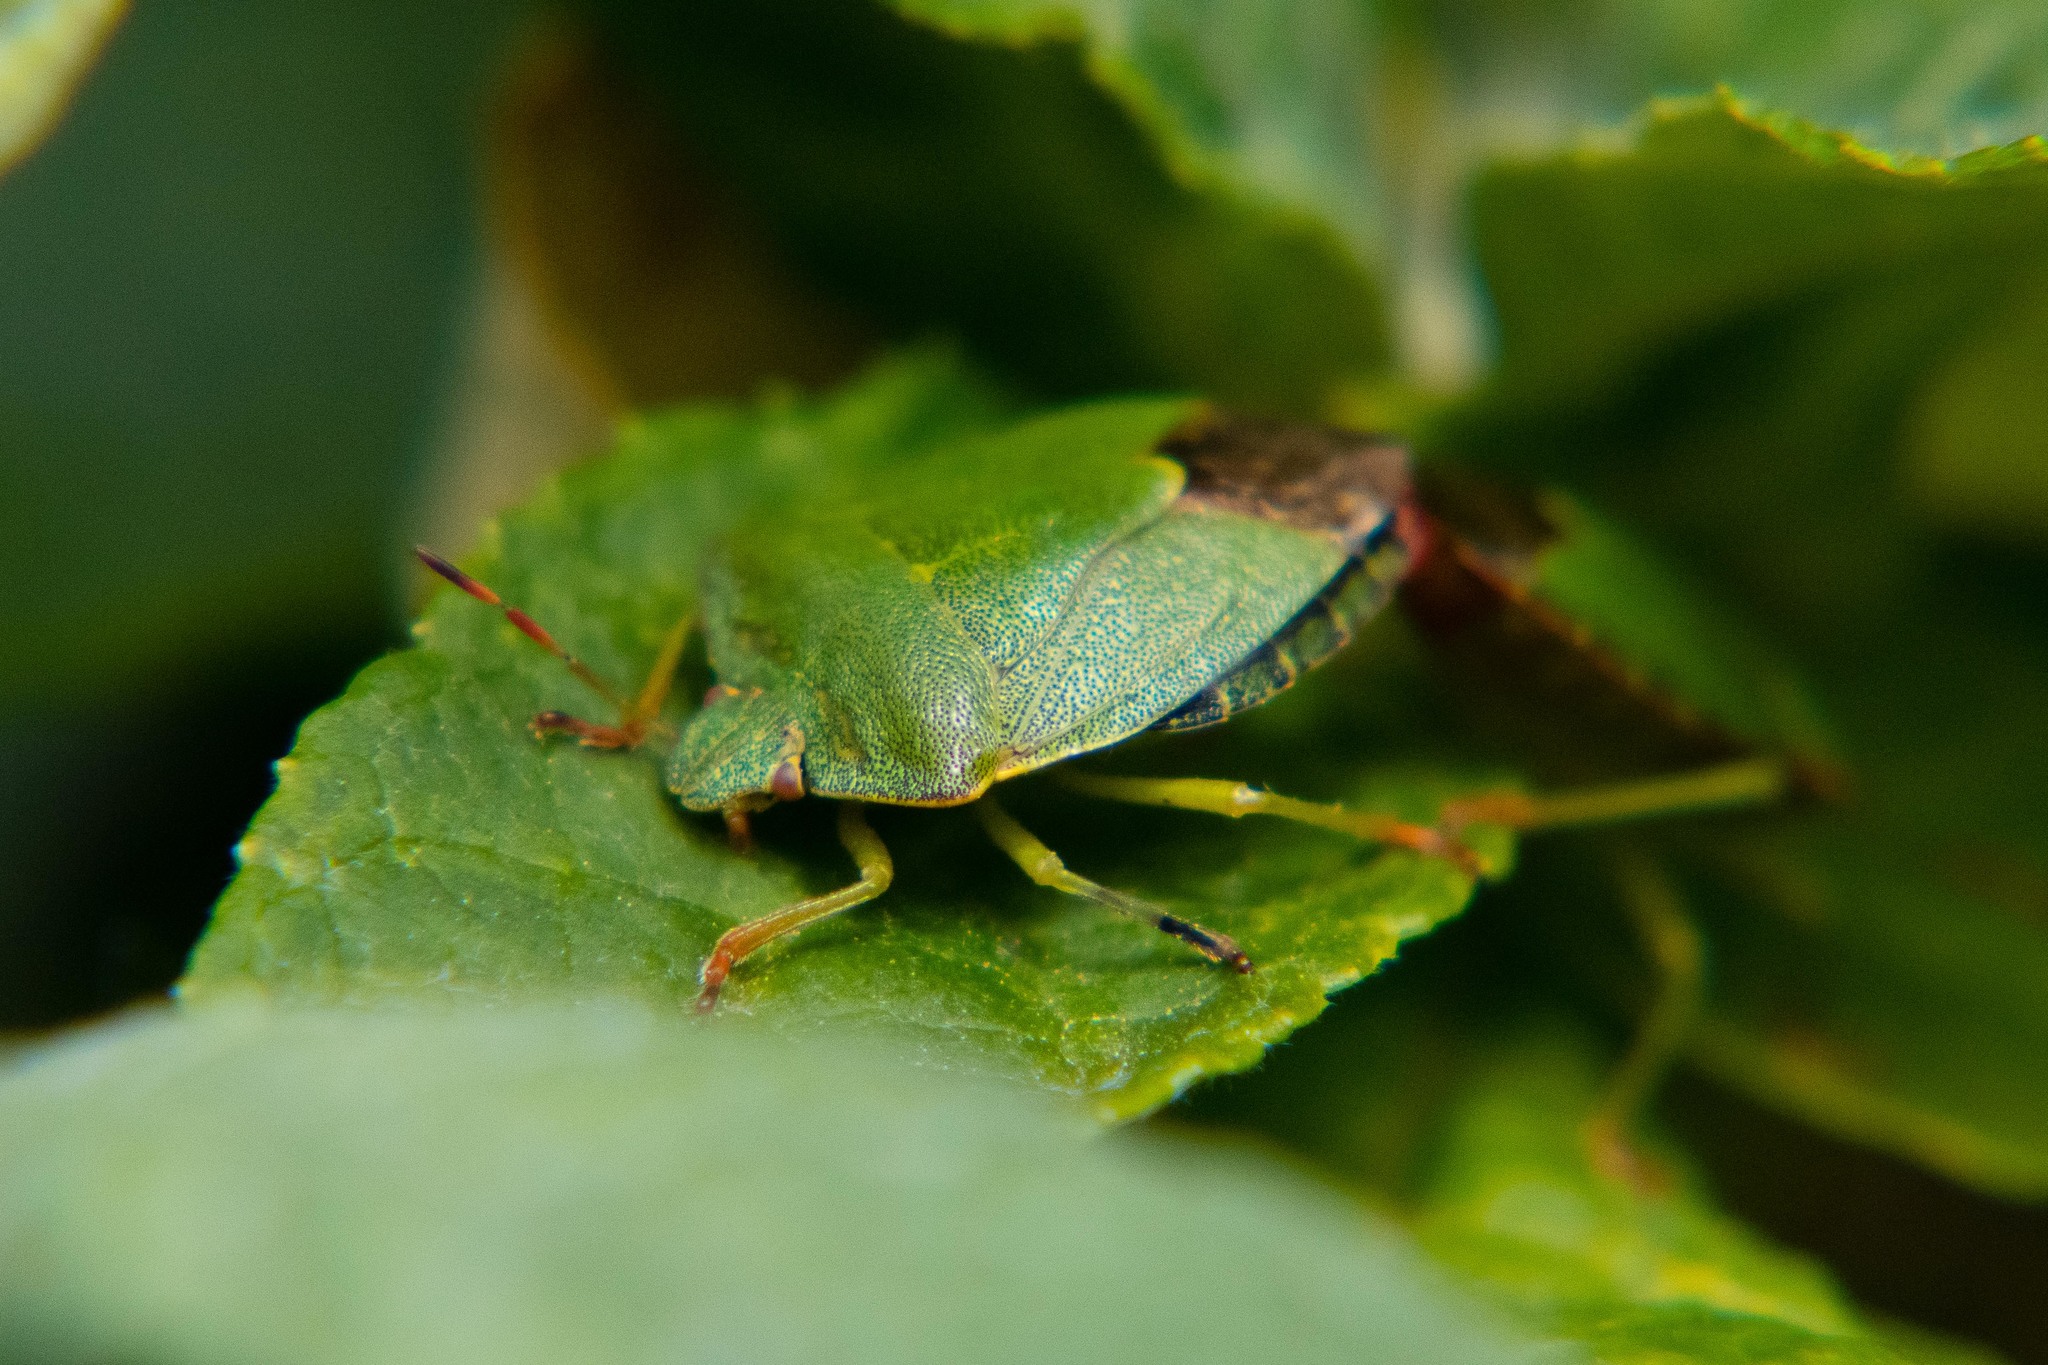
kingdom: Animalia
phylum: Arthropoda
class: Insecta
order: Hemiptera
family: Pentatomidae
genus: Palomena
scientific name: Palomena prasina
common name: Green shieldbug
